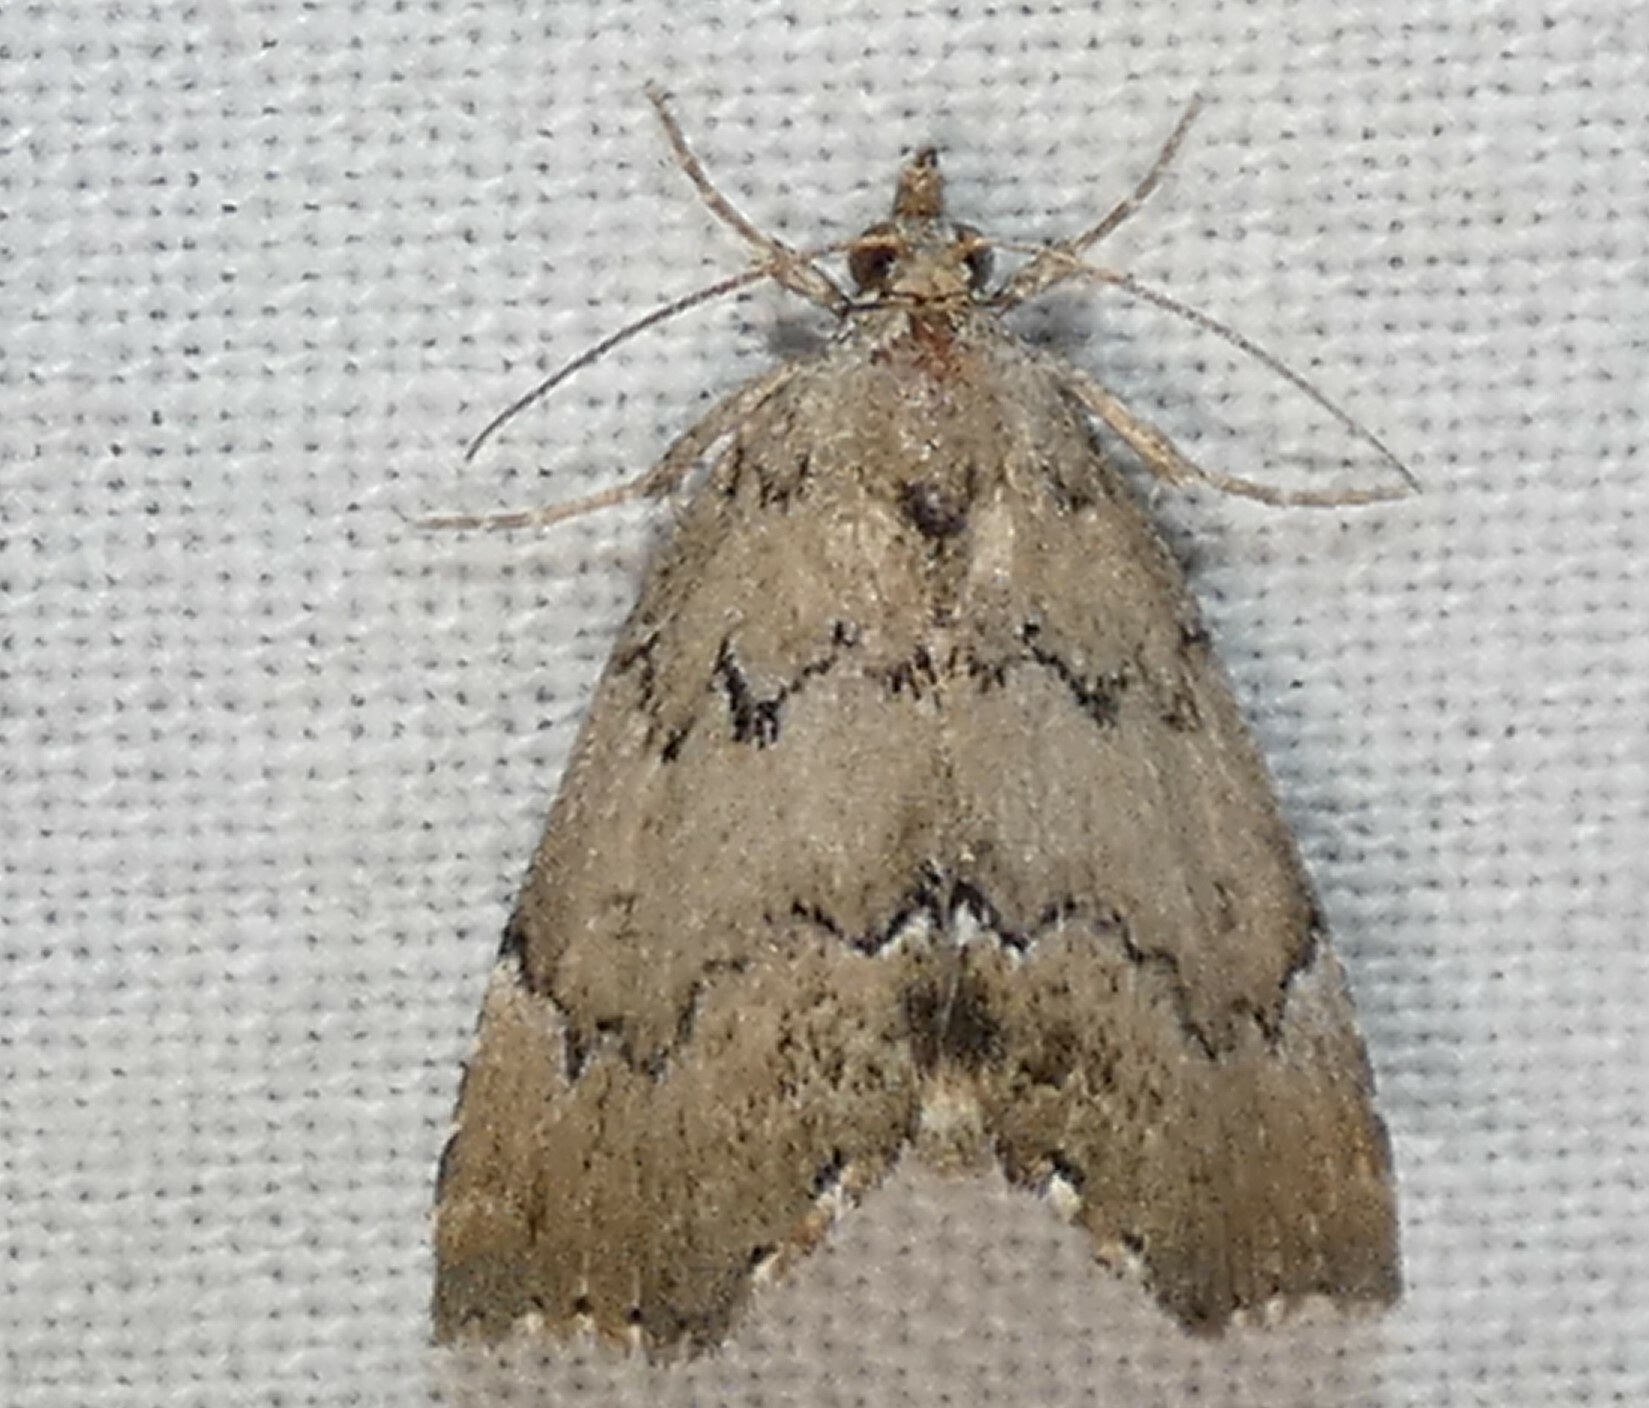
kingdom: Animalia
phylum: Arthropoda
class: Insecta
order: Lepidoptera
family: Erebidae
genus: Cutina
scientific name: Cutina aluticolor
